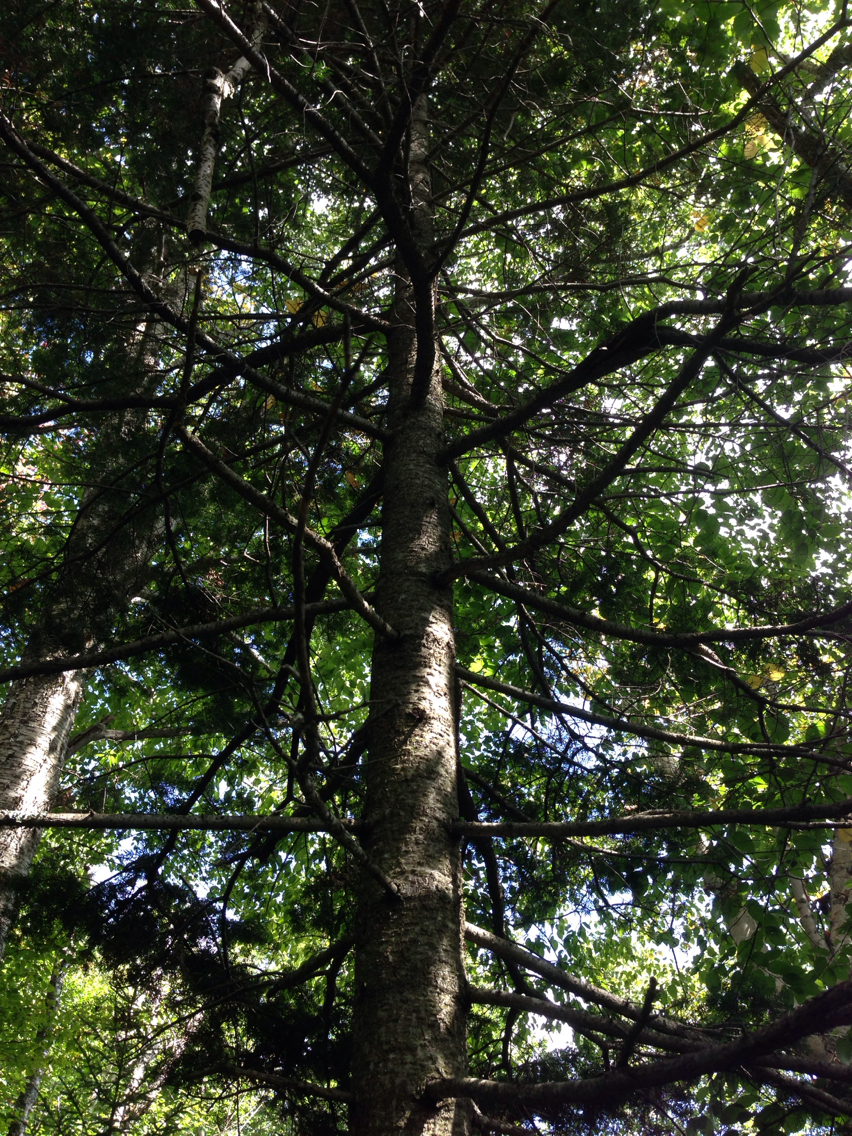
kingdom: Plantae
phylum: Tracheophyta
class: Pinopsida
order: Pinales
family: Pinaceae
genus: Abies
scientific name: Abies balsamea
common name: Balsam fir
